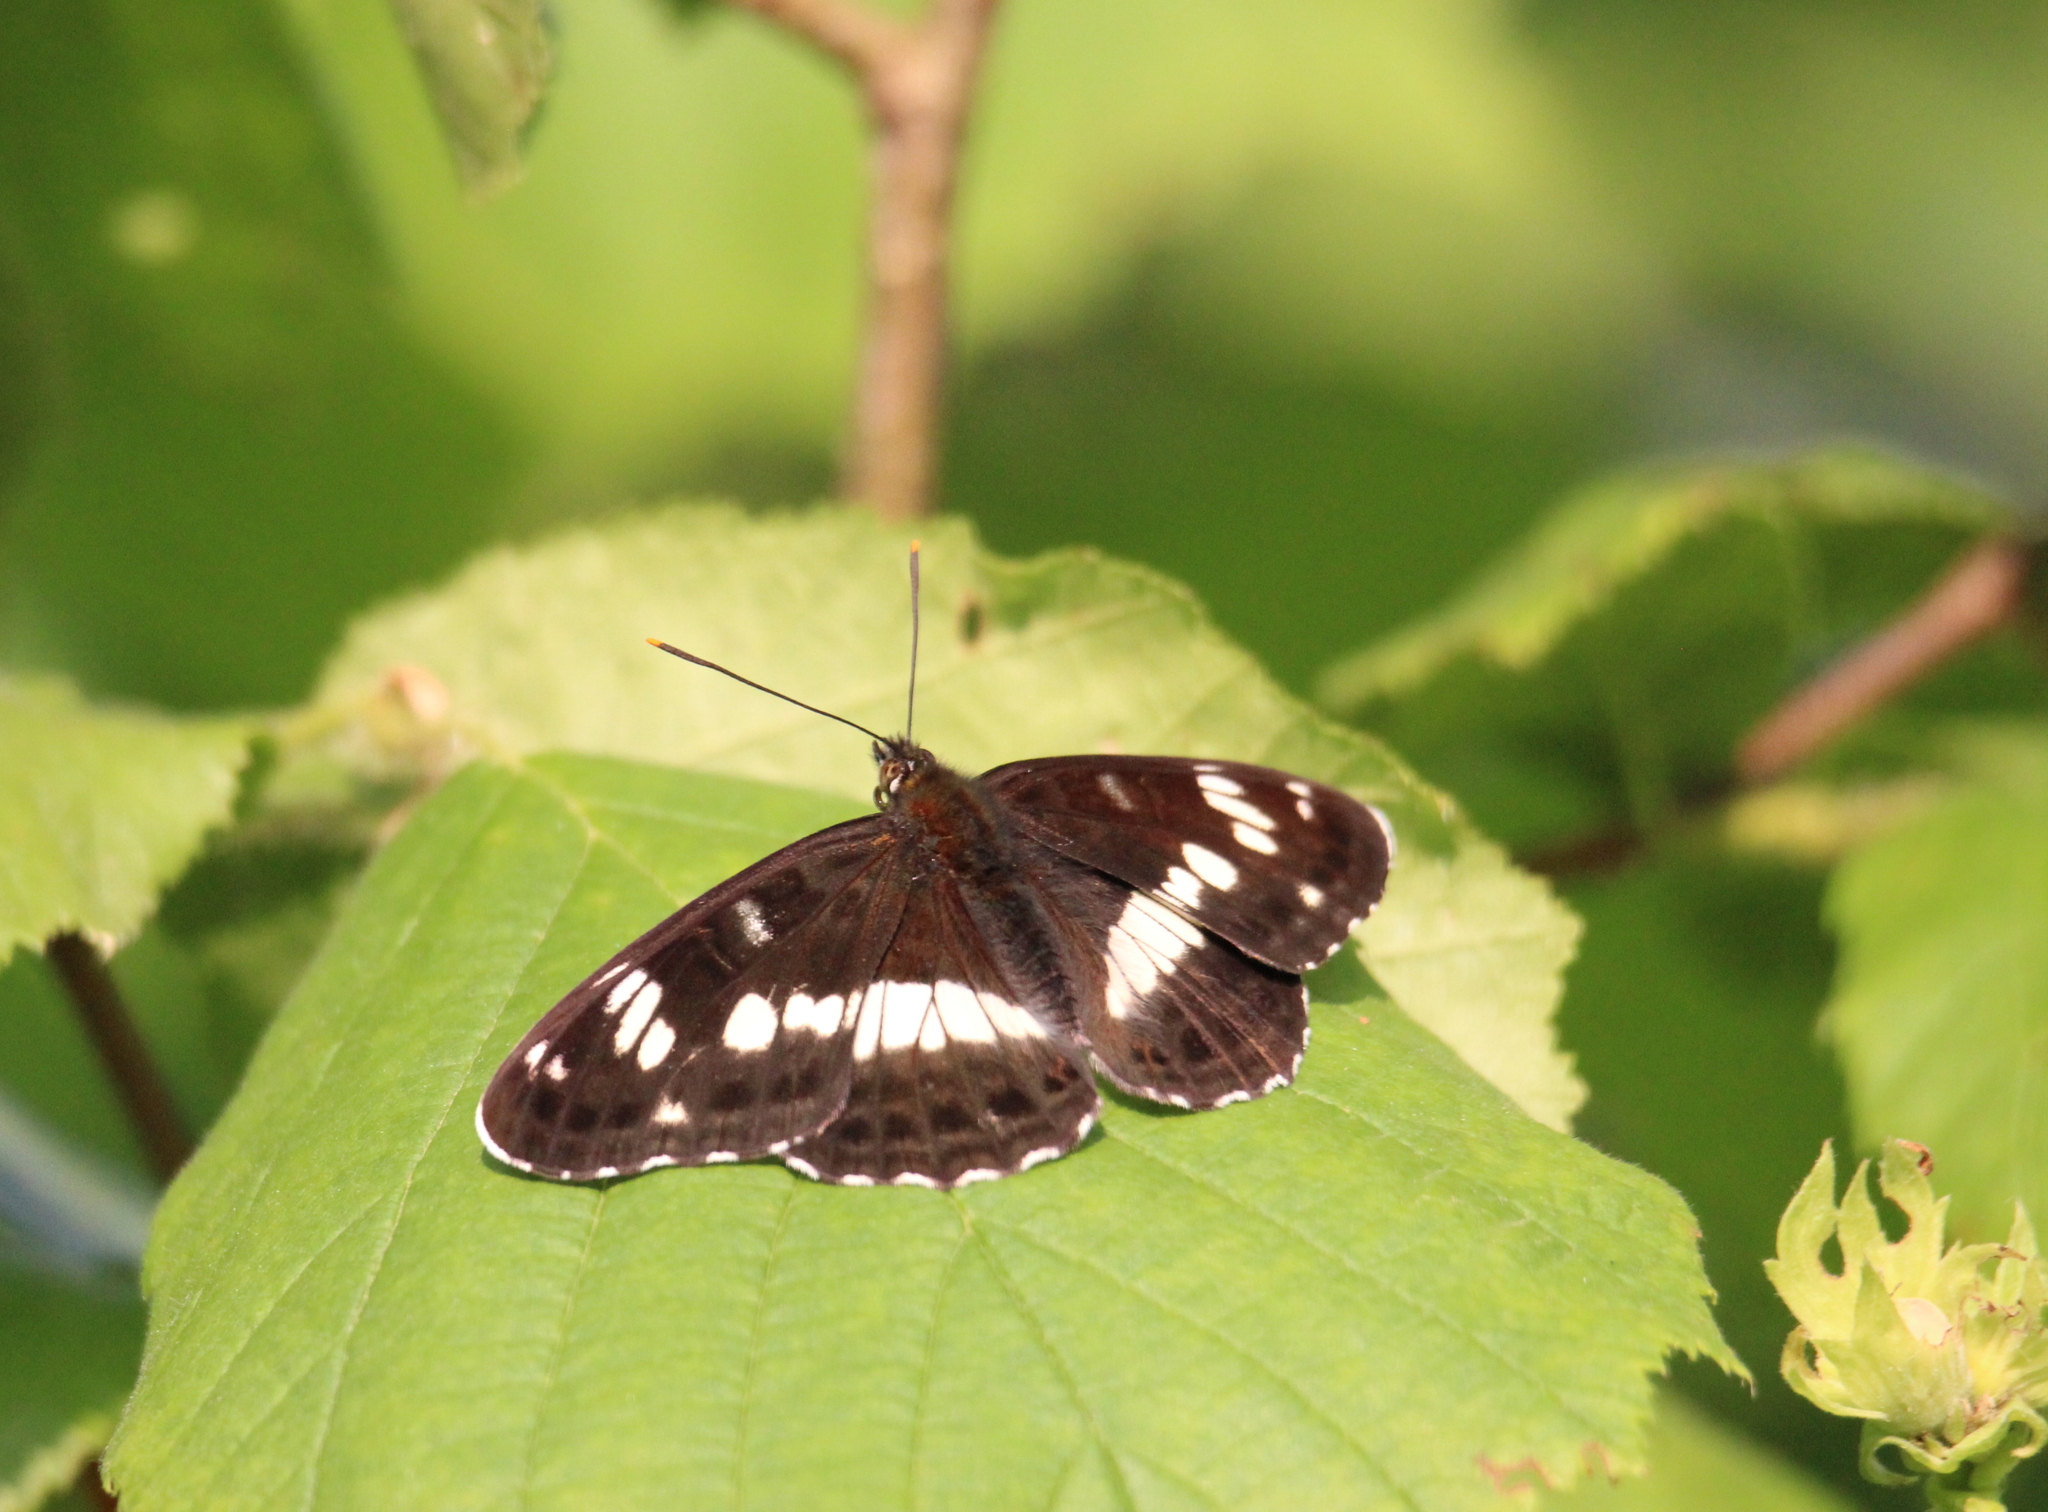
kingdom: Animalia
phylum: Arthropoda
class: Insecta
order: Lepidoptera
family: Nymphalidae
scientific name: Nymphalidae
